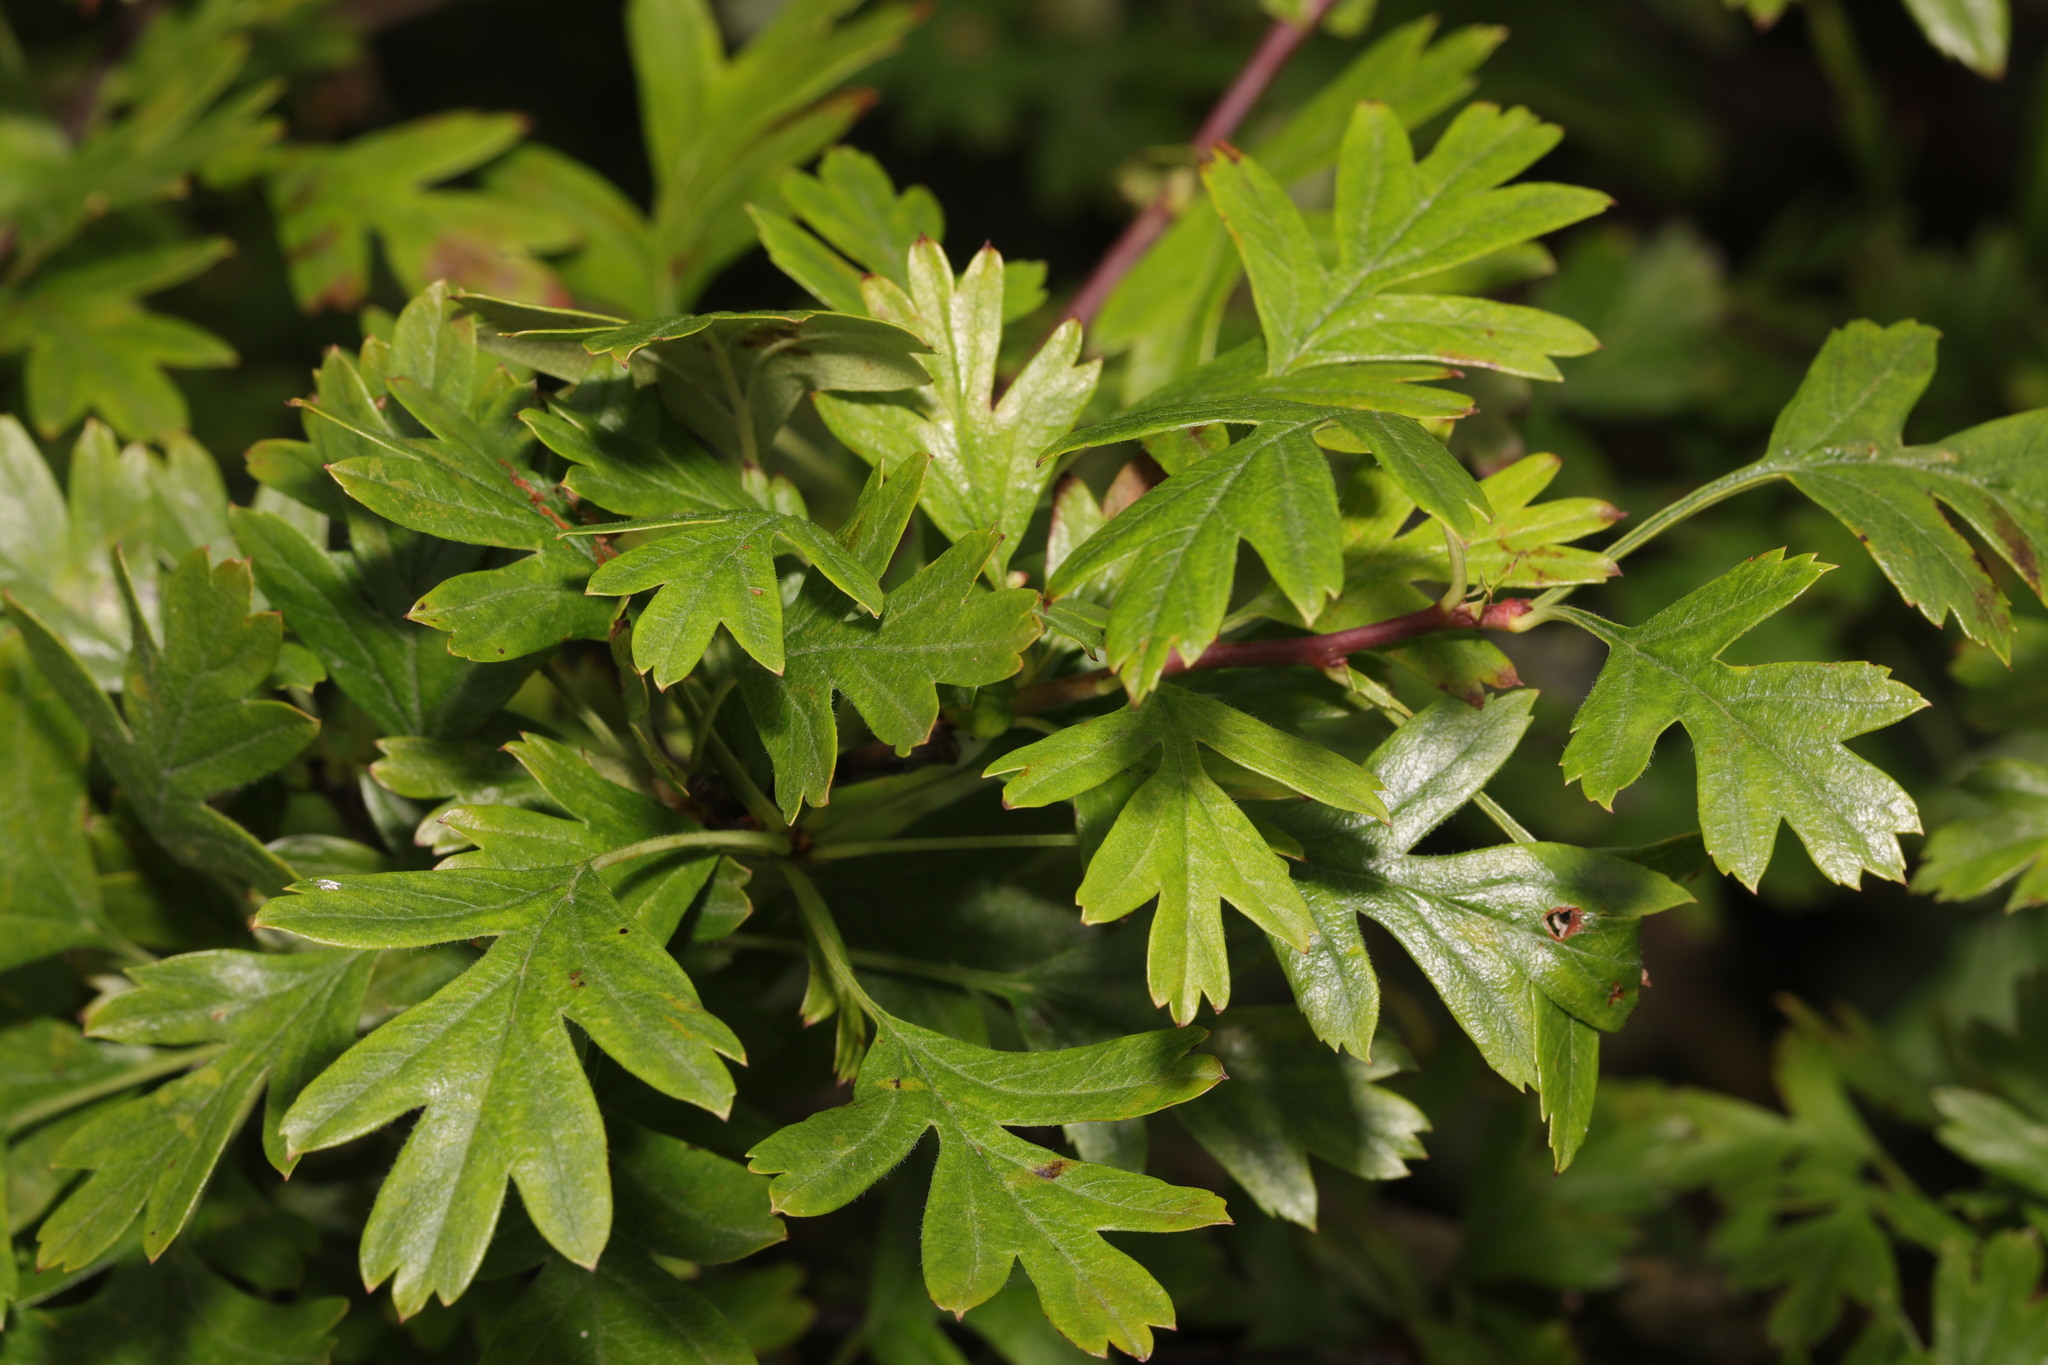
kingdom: Plantae
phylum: Tracheophyta
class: Magnoliopsida
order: Rosales
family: Rosaceae
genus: Crataegus
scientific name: Crataegus monogyna
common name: Hawthorn
